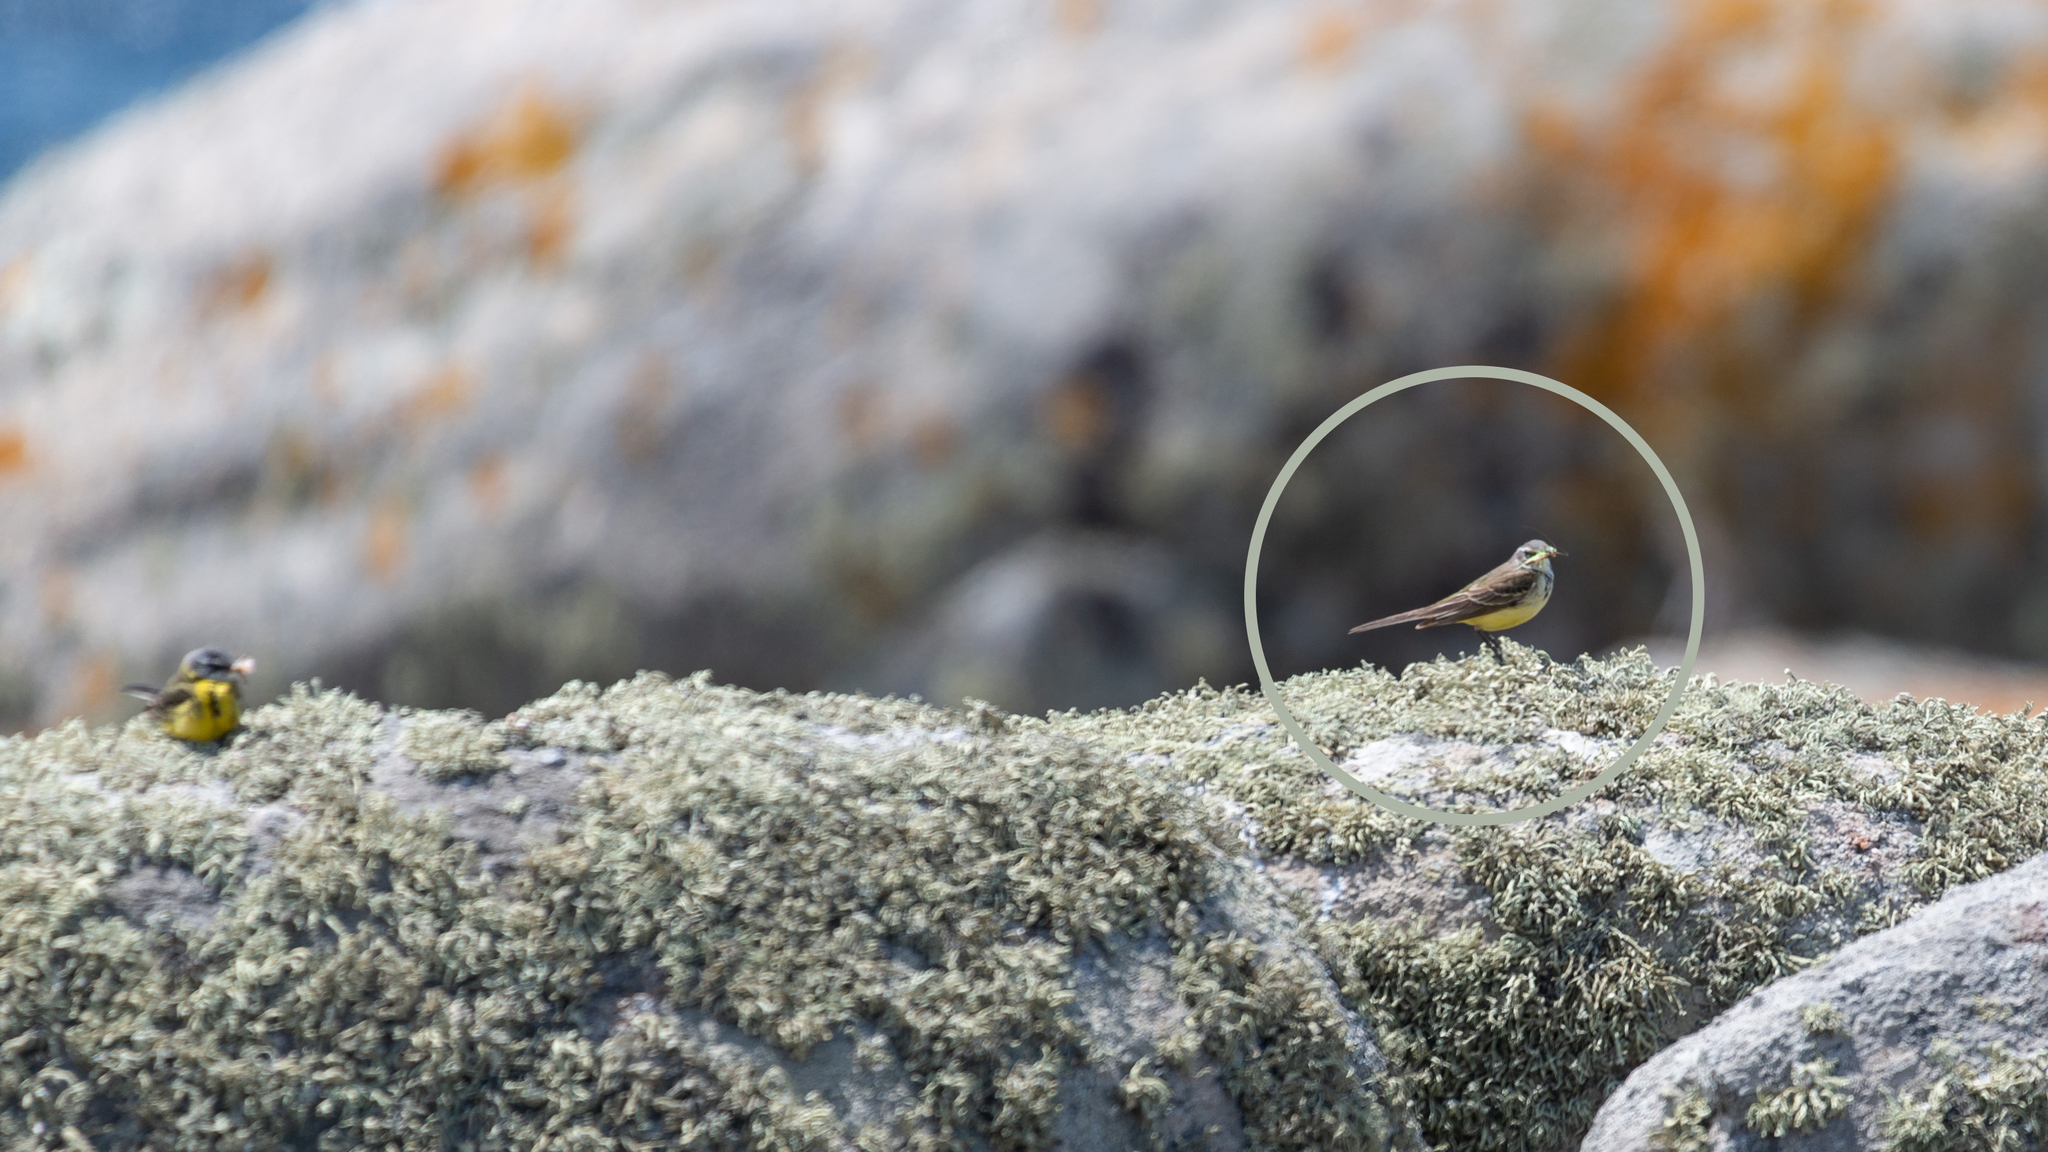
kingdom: Animalia
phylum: Chordata
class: Aves
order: Passeriformes
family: Motacillidae
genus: Motacilla
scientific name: Motacilla flava
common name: Western yellow wagtail
